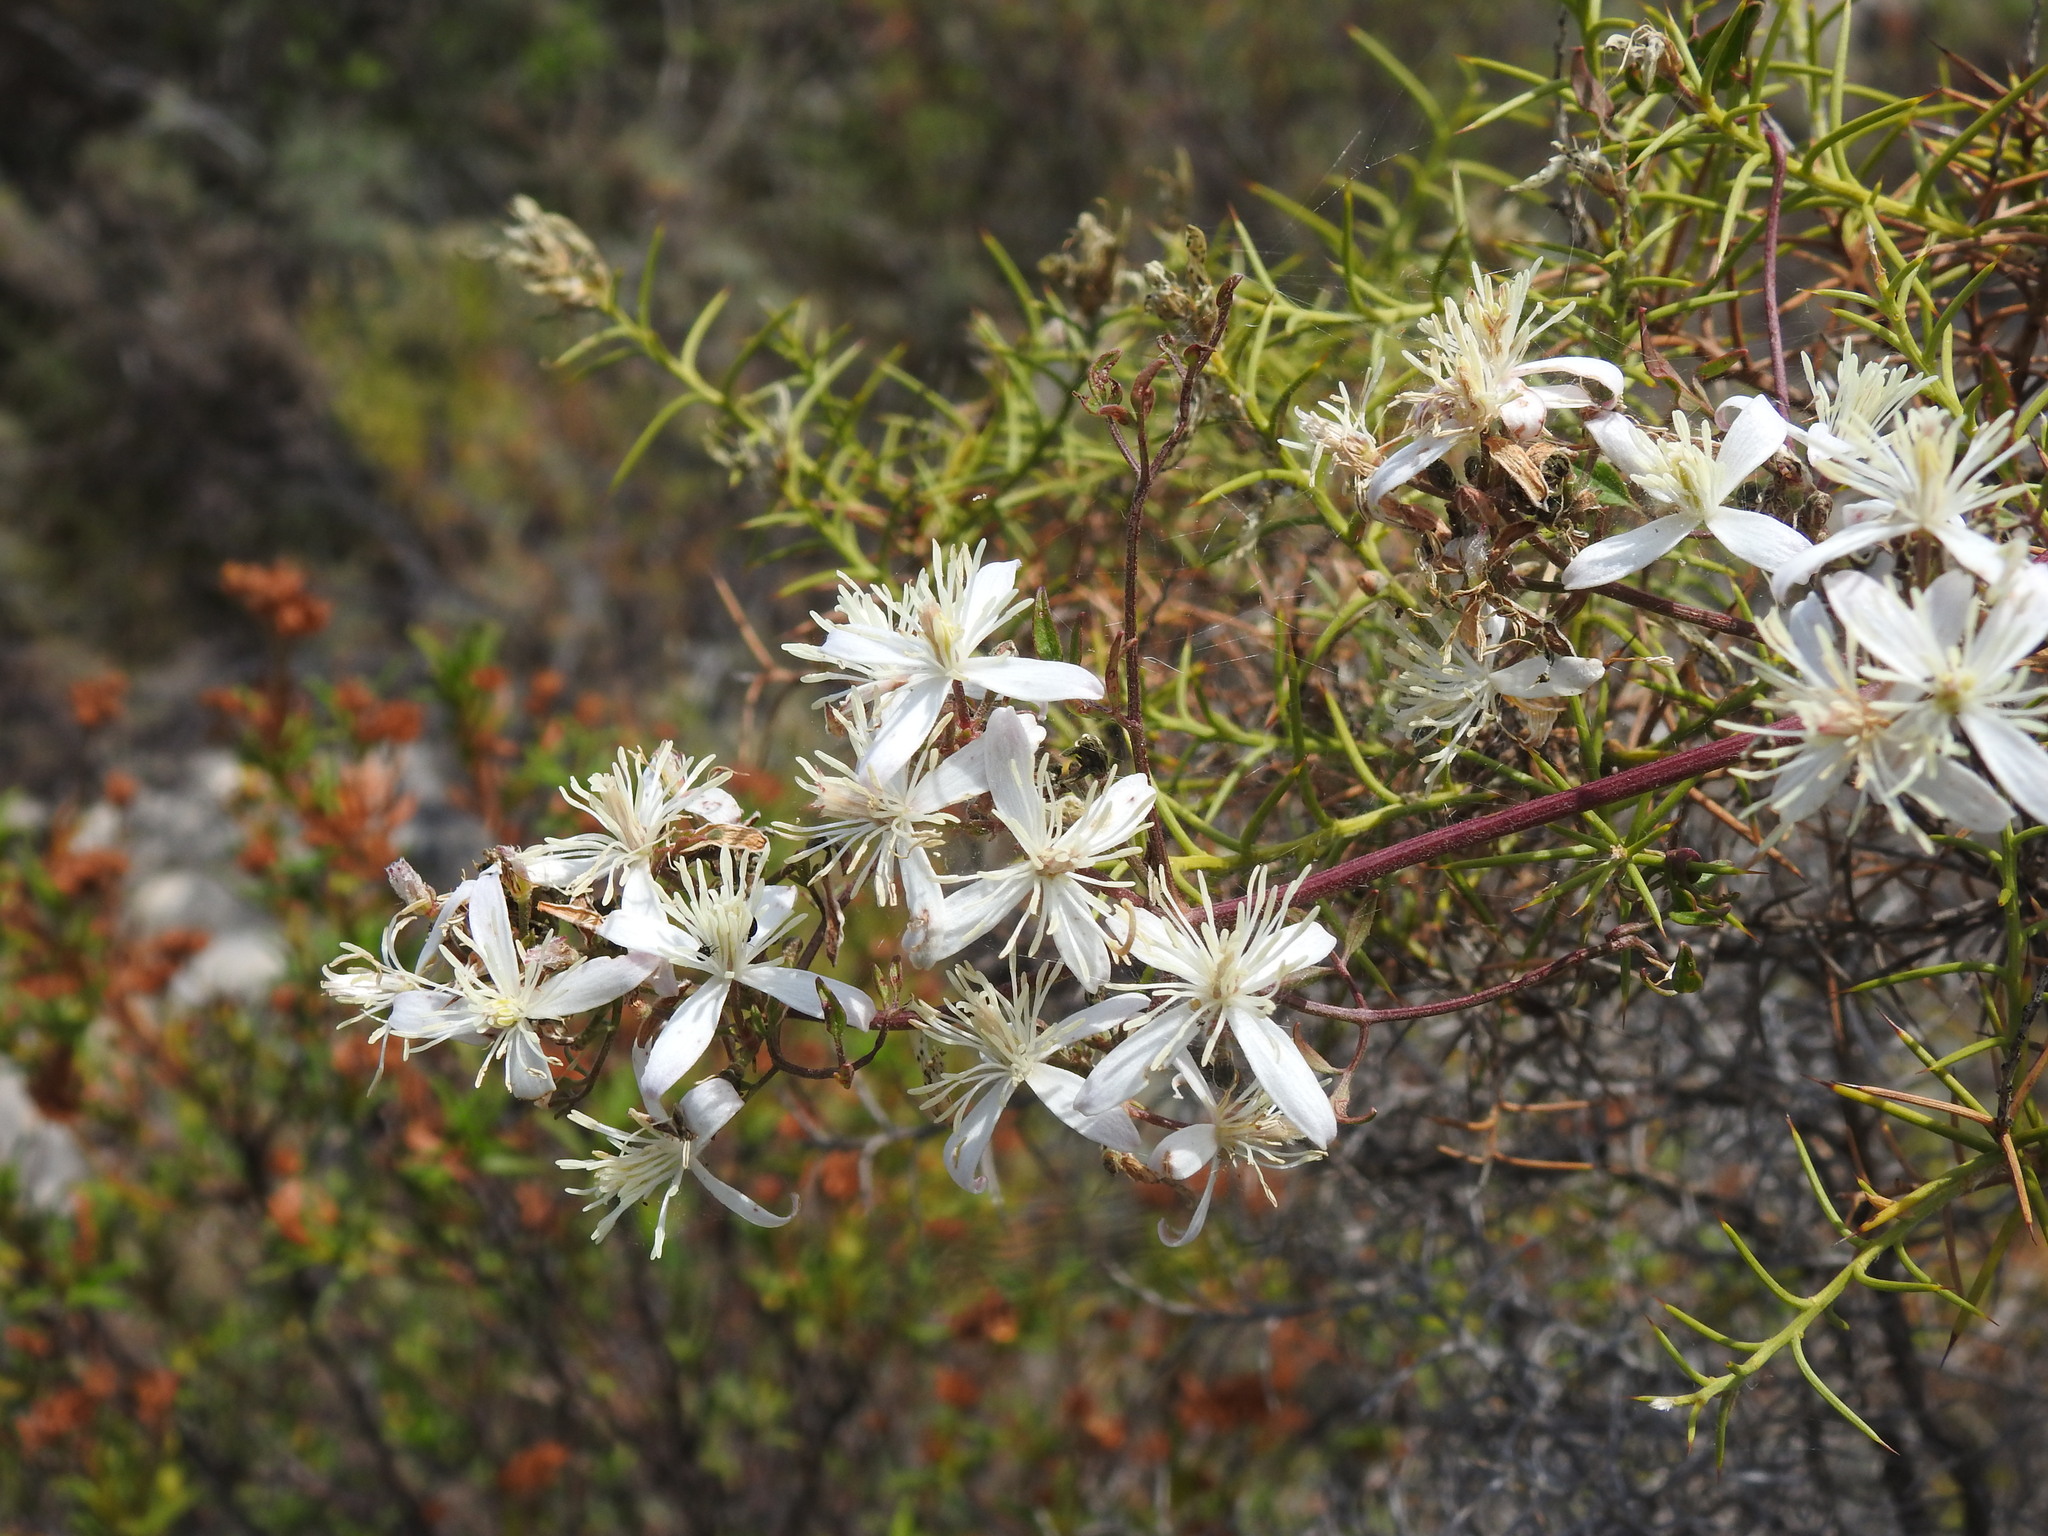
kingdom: Plantae
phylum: Tracheophyta
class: Magnoliopsida
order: Ranunculales
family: Ranunculaceae
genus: Clematis
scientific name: Clematis flammula
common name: Virgin's-bower
